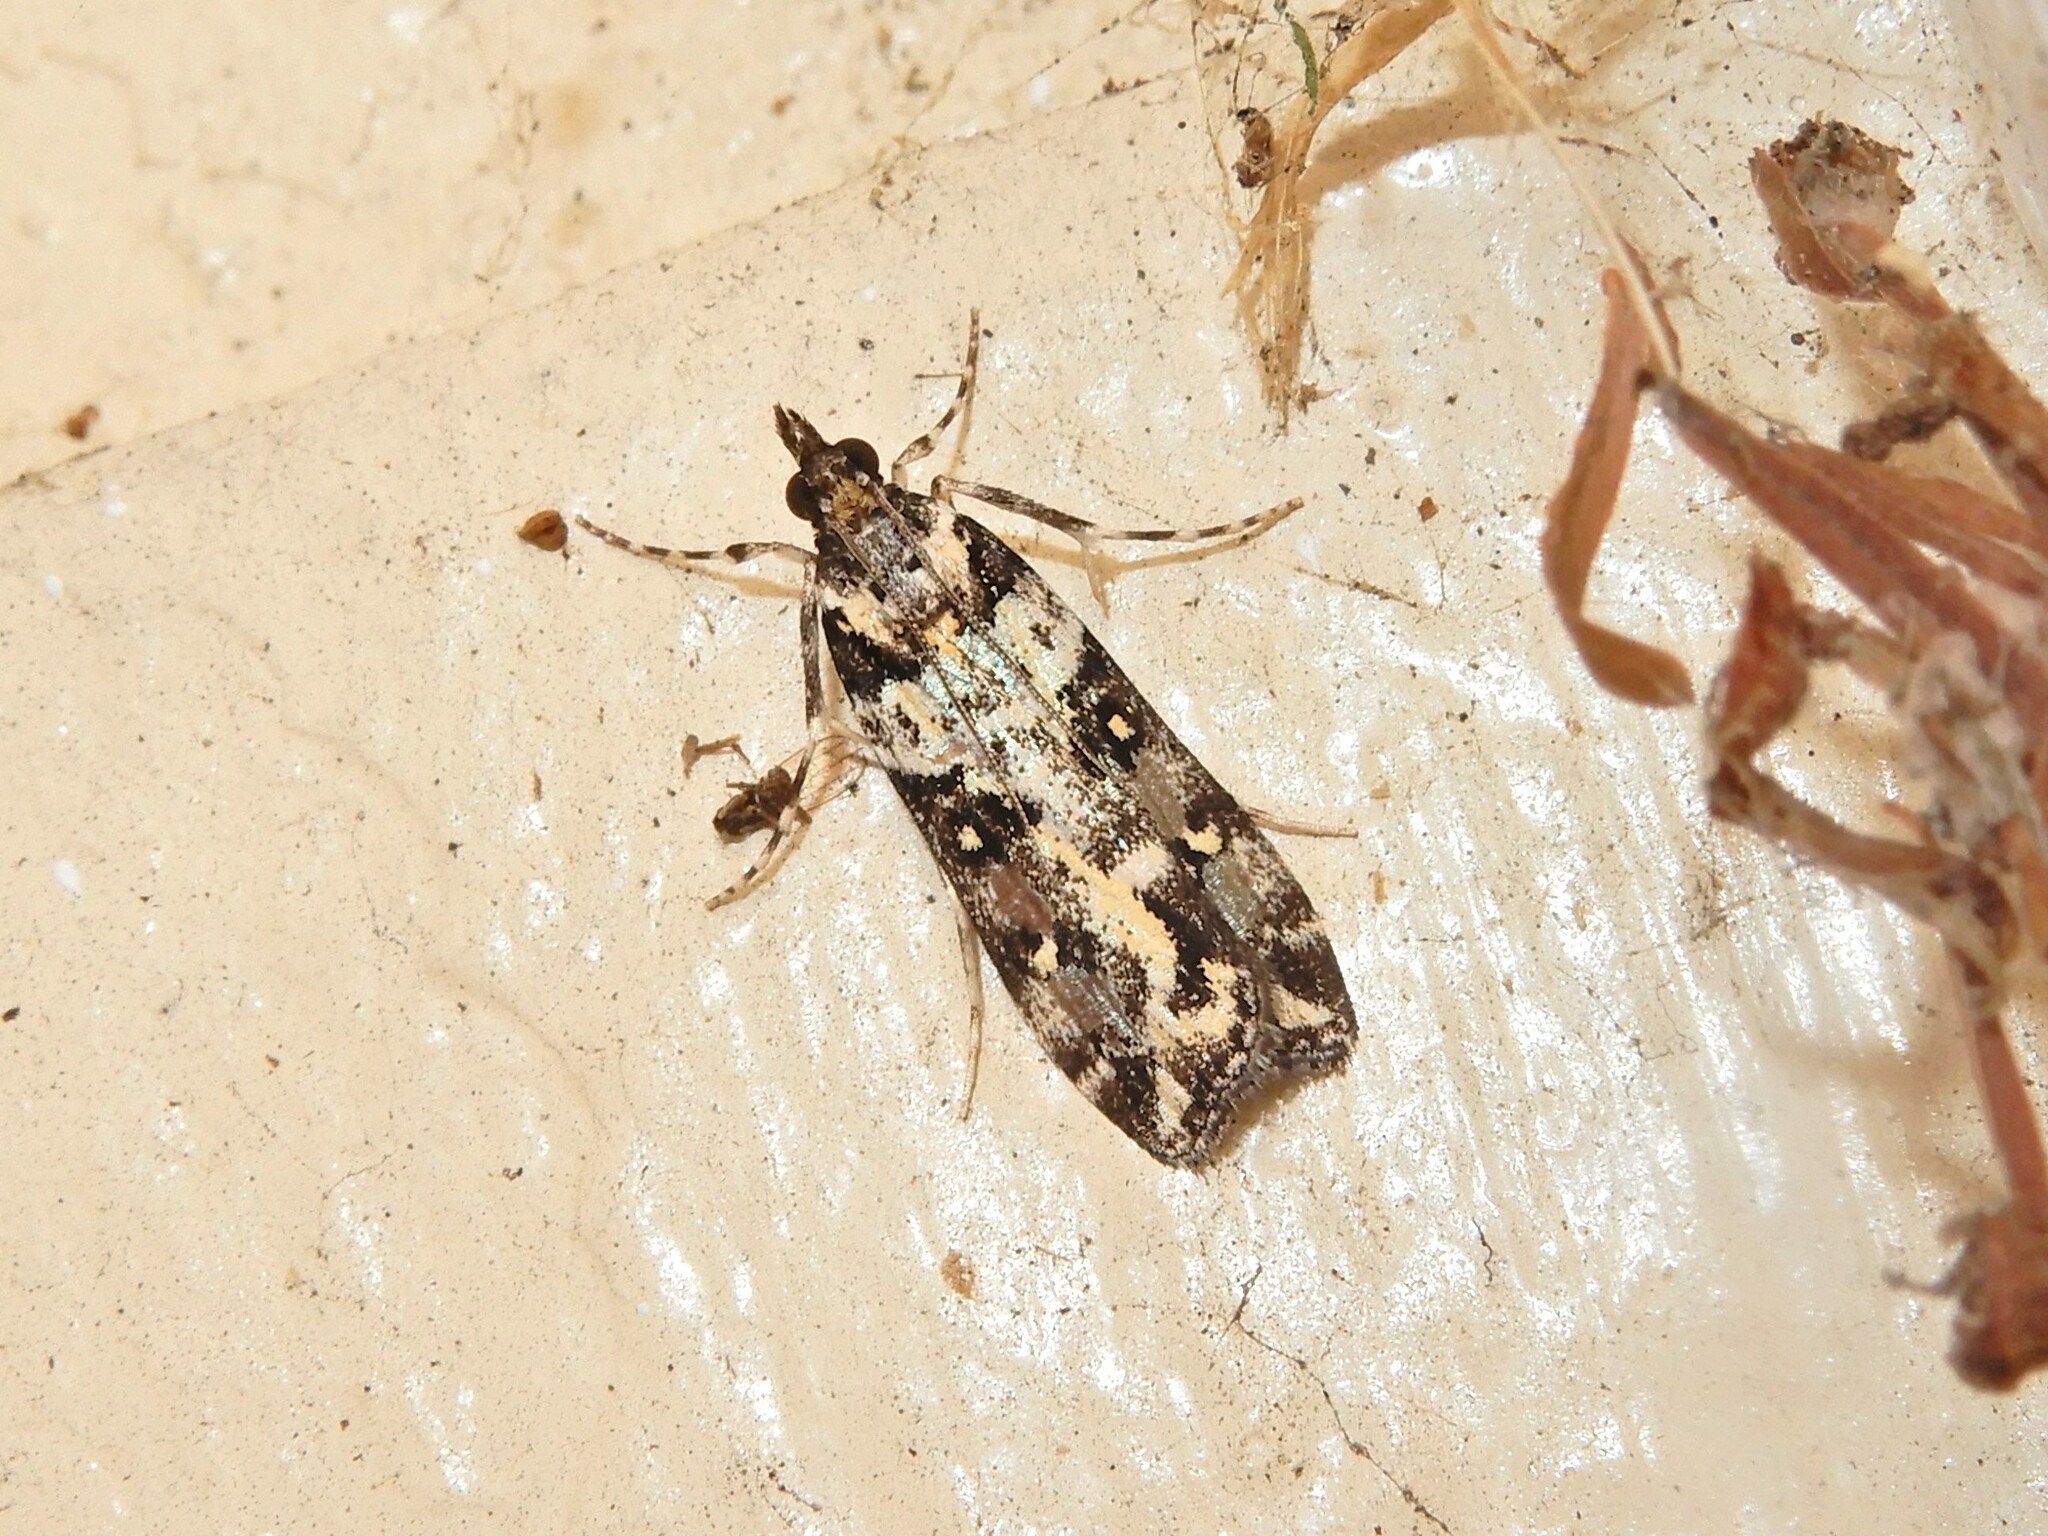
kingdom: Animalia
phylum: Arthropoda
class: Insecta
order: Lepidoptera
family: Crambidae
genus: Eudonia
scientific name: Eudonia diphtheralis
